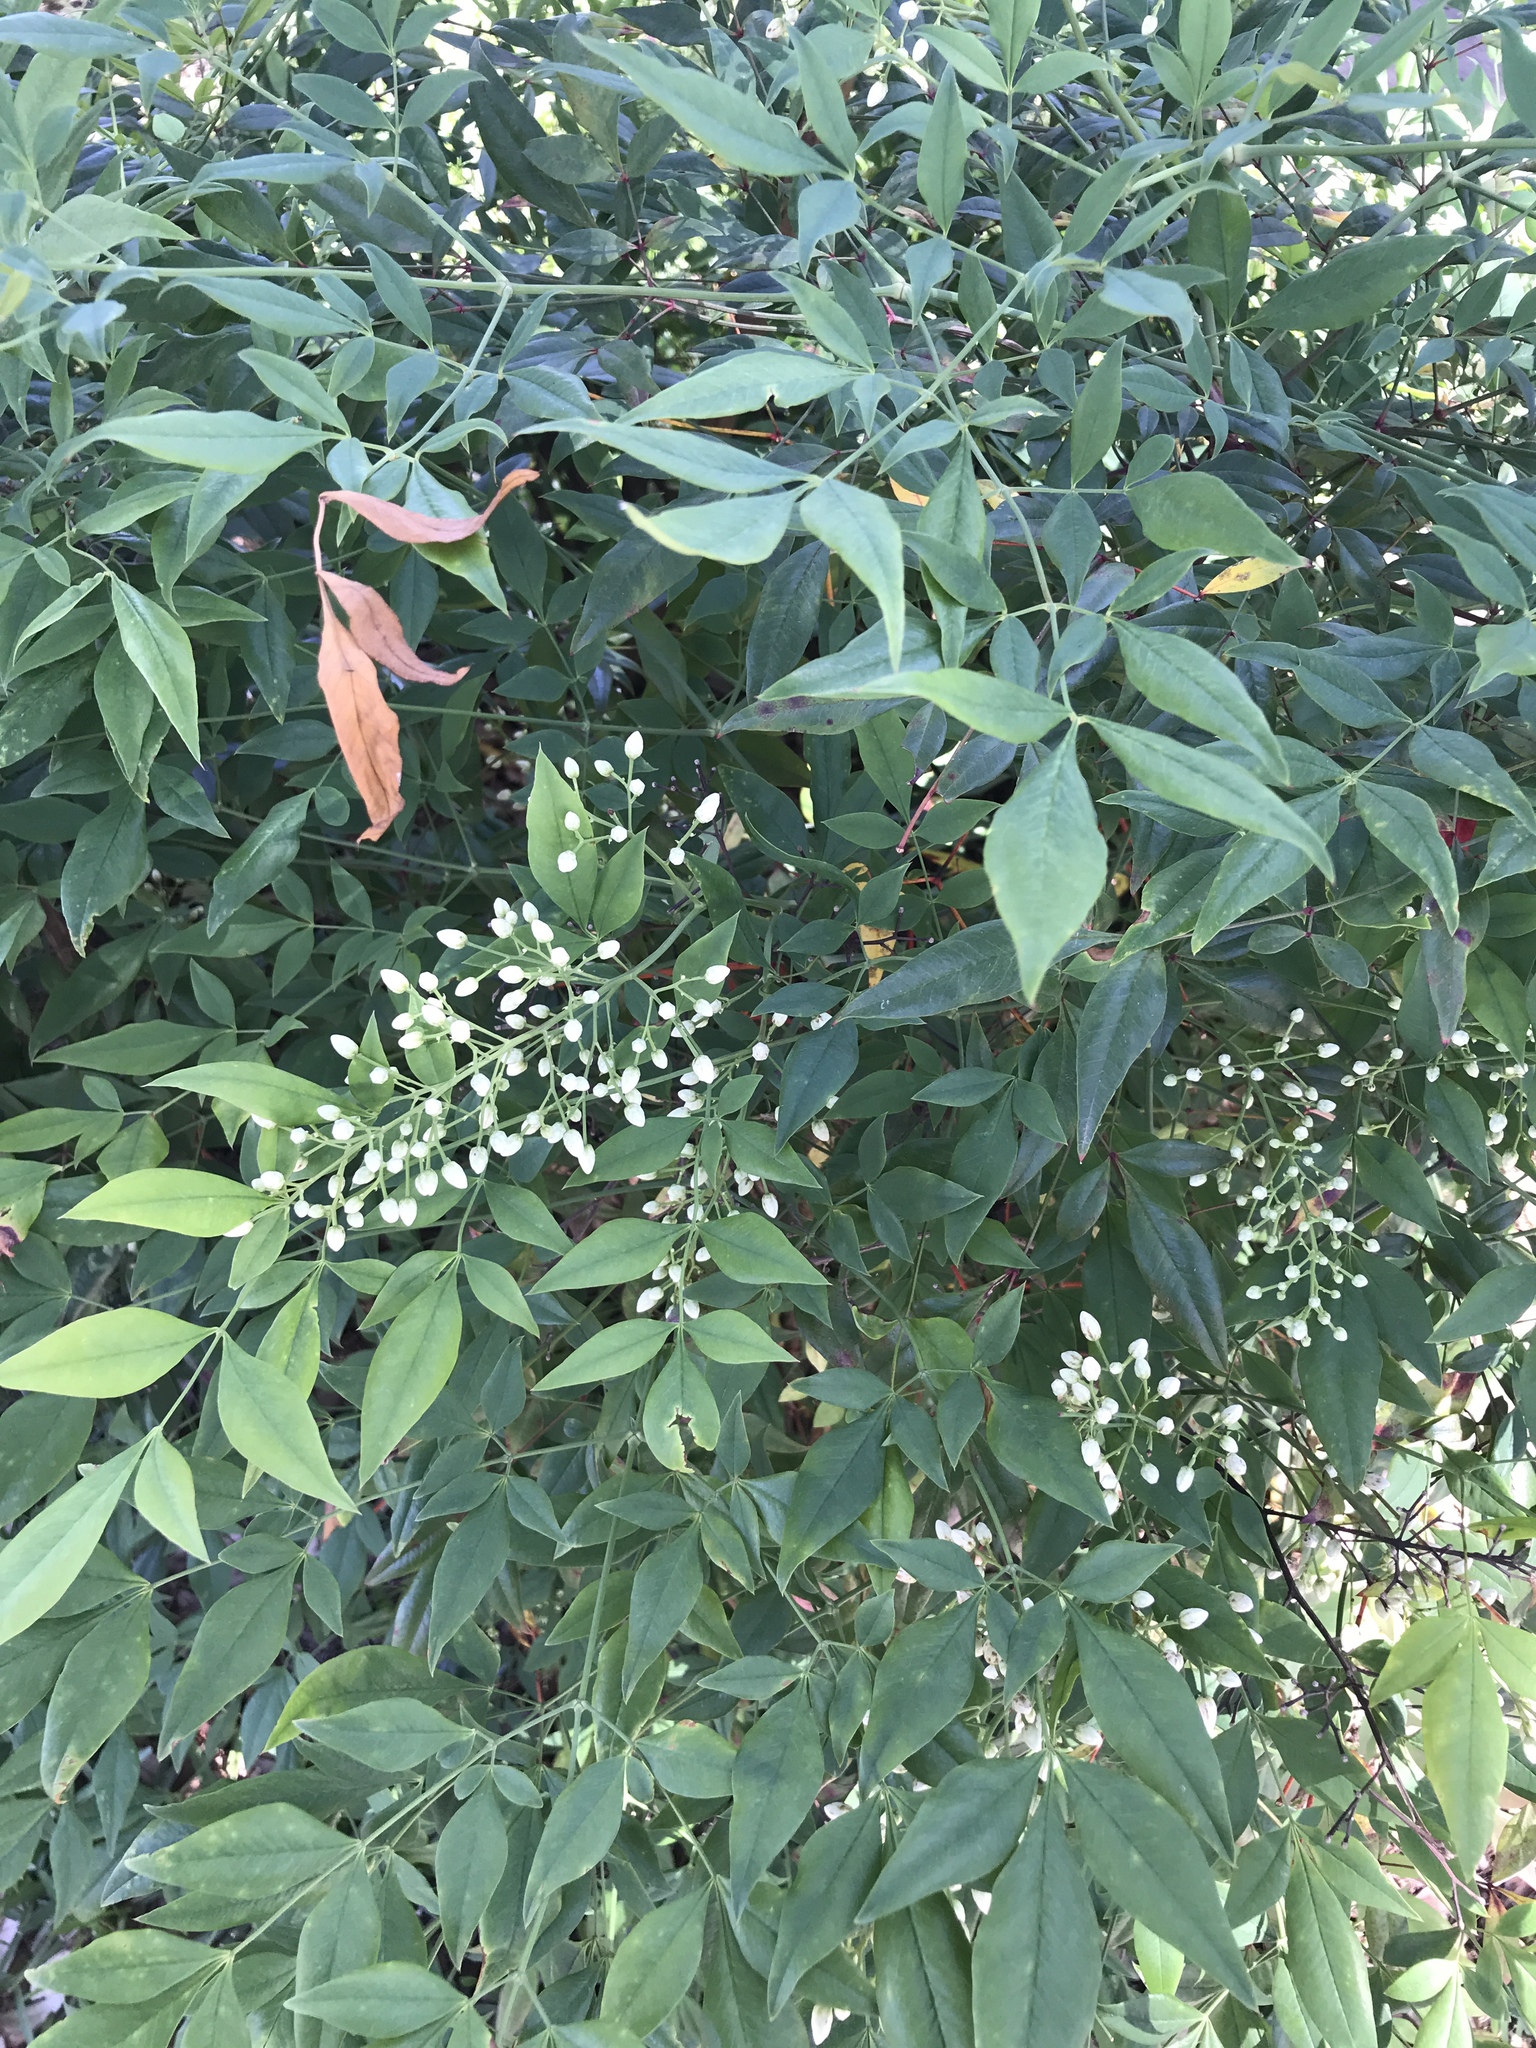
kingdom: Plantae
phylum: Tracheophyta
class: Magnoliopsida
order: Ranunculales
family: Berberidaceae
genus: Nandina
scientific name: Nandina domestica
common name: Sacred bamboo
